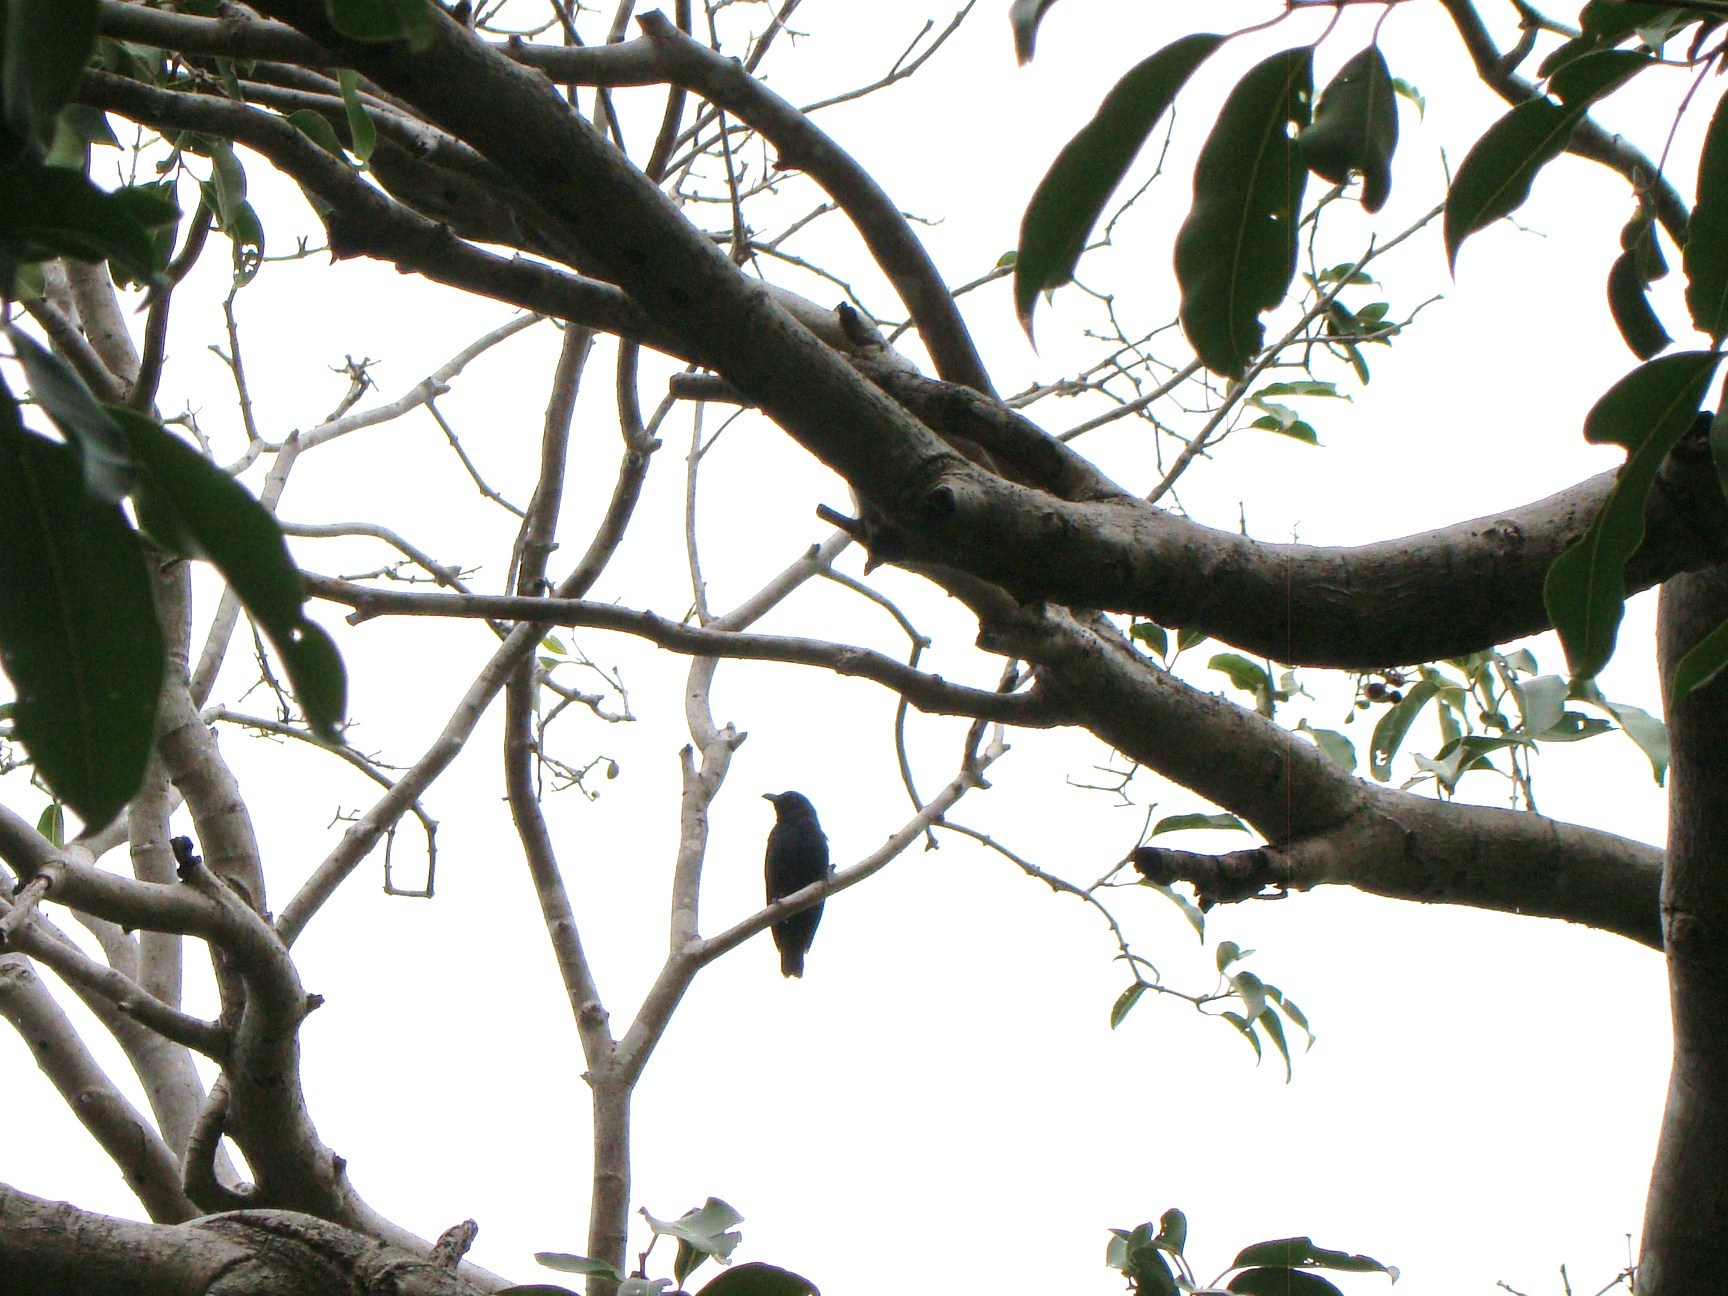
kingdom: Animalia
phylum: Chordata
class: Aves
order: Passeriformes
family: Sturnidae
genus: Aplonis
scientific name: Aplonis striata
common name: Striated starling
